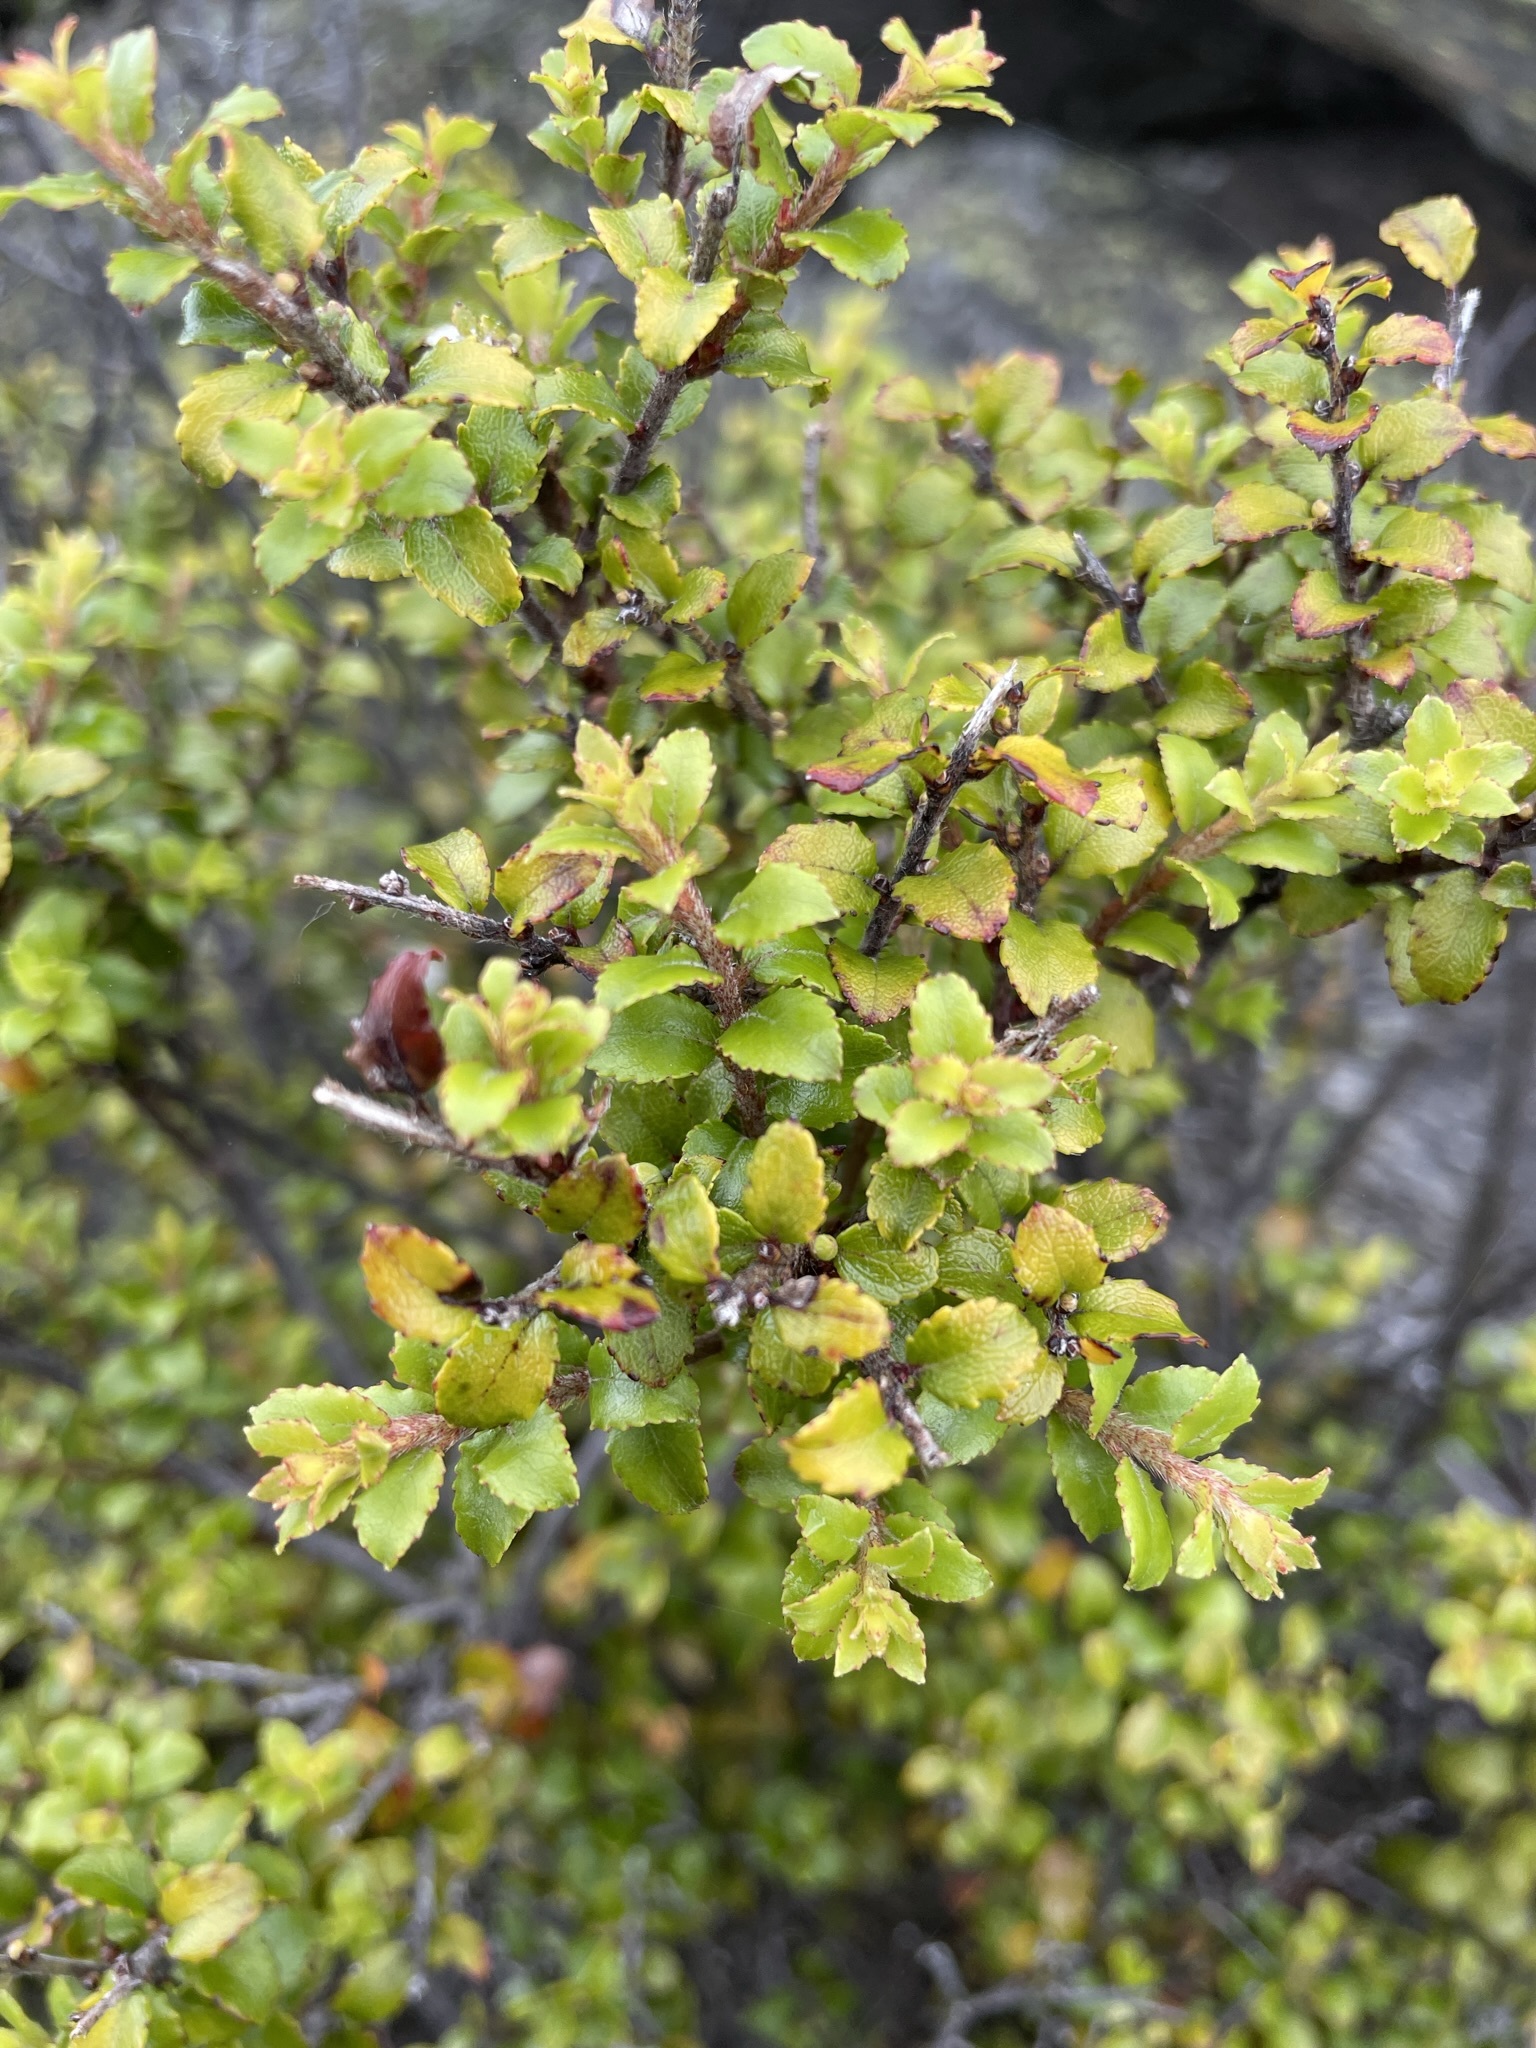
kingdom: Plantae
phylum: Tracheophyta
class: Magnoliopsida
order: Ericales
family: Ericaceae
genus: Gaultheria
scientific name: Gaultheria antipoda
